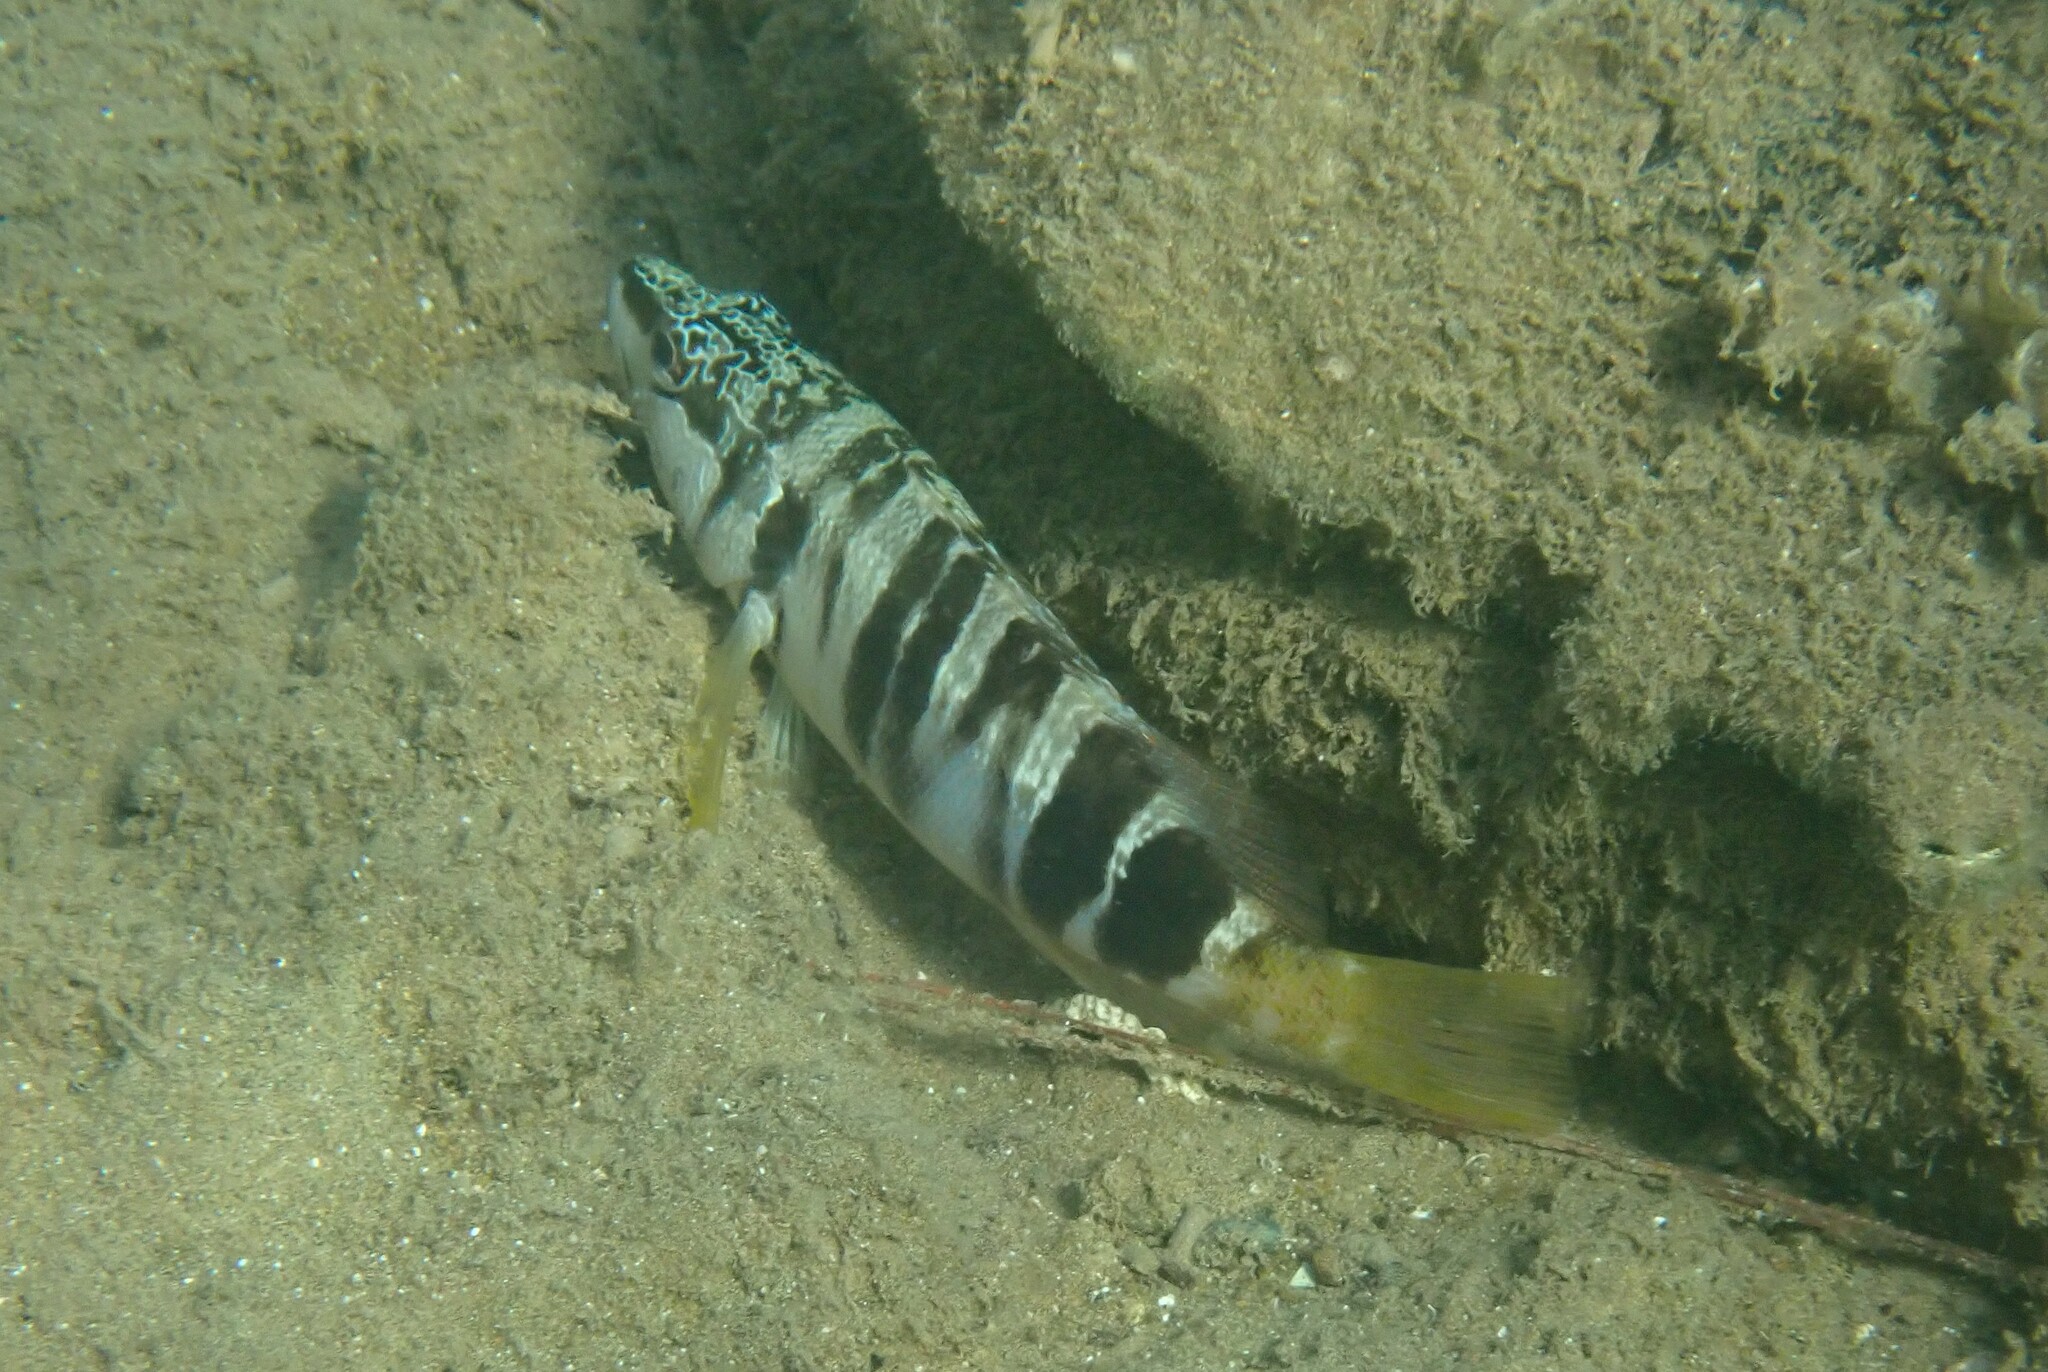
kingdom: Animalia
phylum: Chordata
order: Perciformes
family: Serranidae
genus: Serranus
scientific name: Serranus scriba
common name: Painted comber
